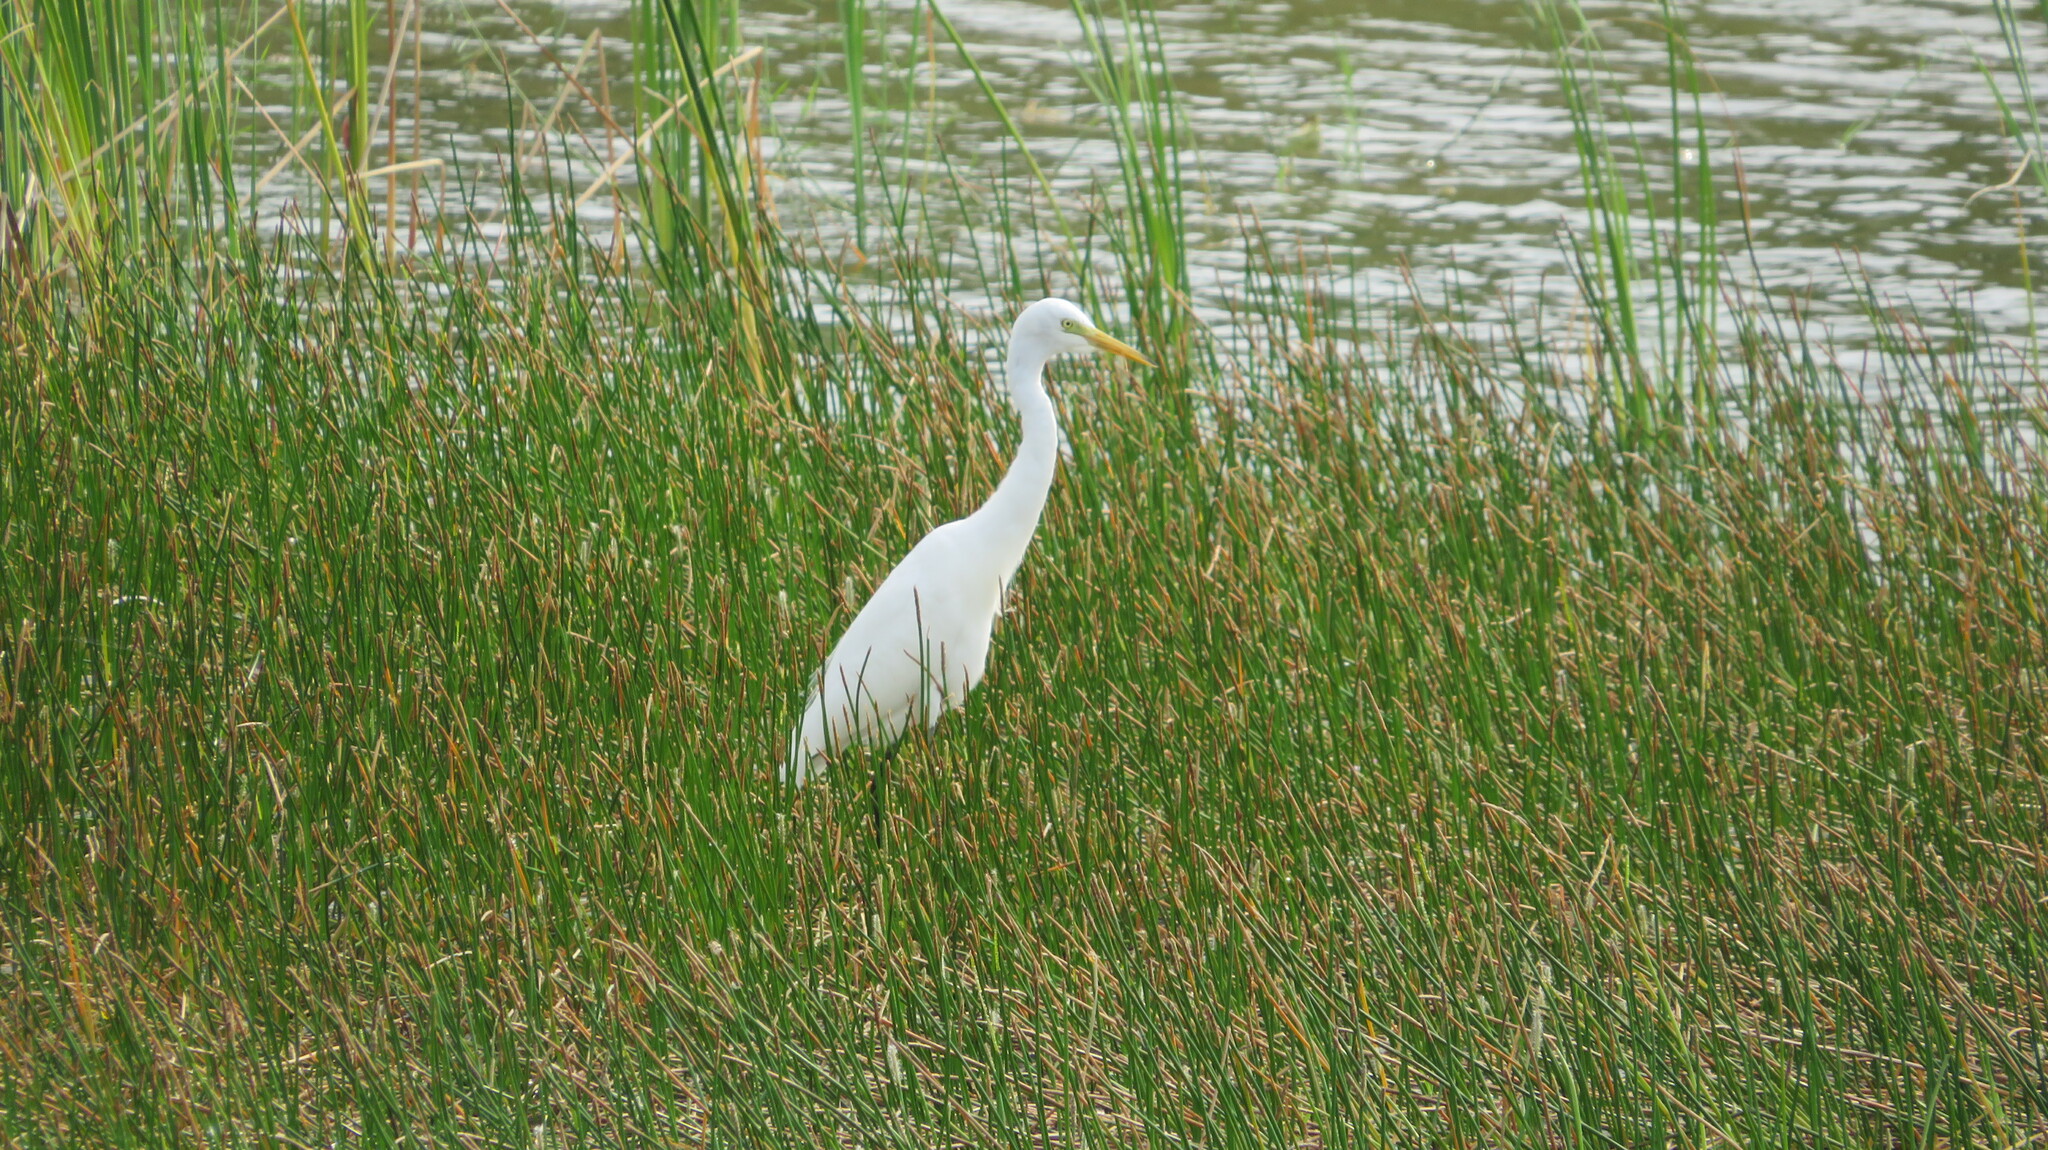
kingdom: Animalia
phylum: Chordata
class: Aves
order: Pelecaniformes
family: Ardeidae
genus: Egretta
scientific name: Egretta intermedia
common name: Intermediate egret
